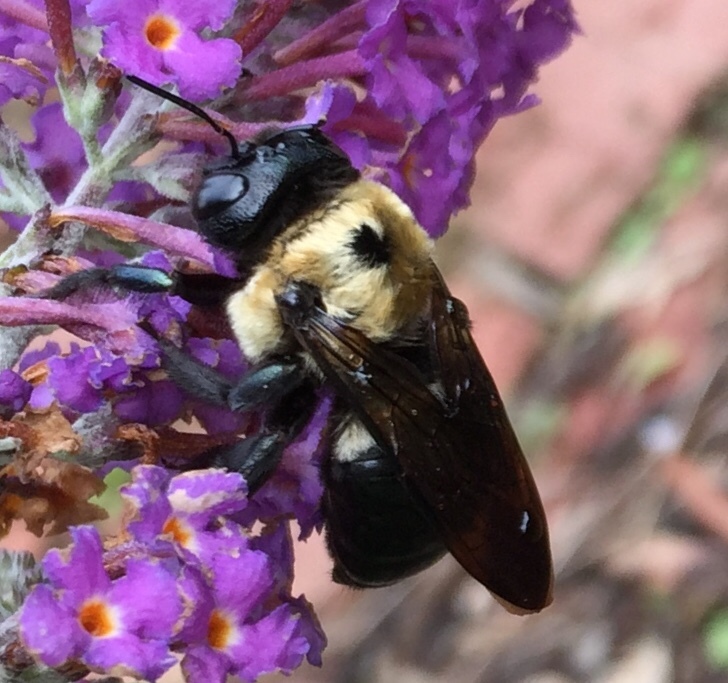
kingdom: Animalia
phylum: Arthropoda
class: Insecta
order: Hymenoptera
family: Apidae
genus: Xylocopa
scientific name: Xylocopa virginica
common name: Carpenter bee
